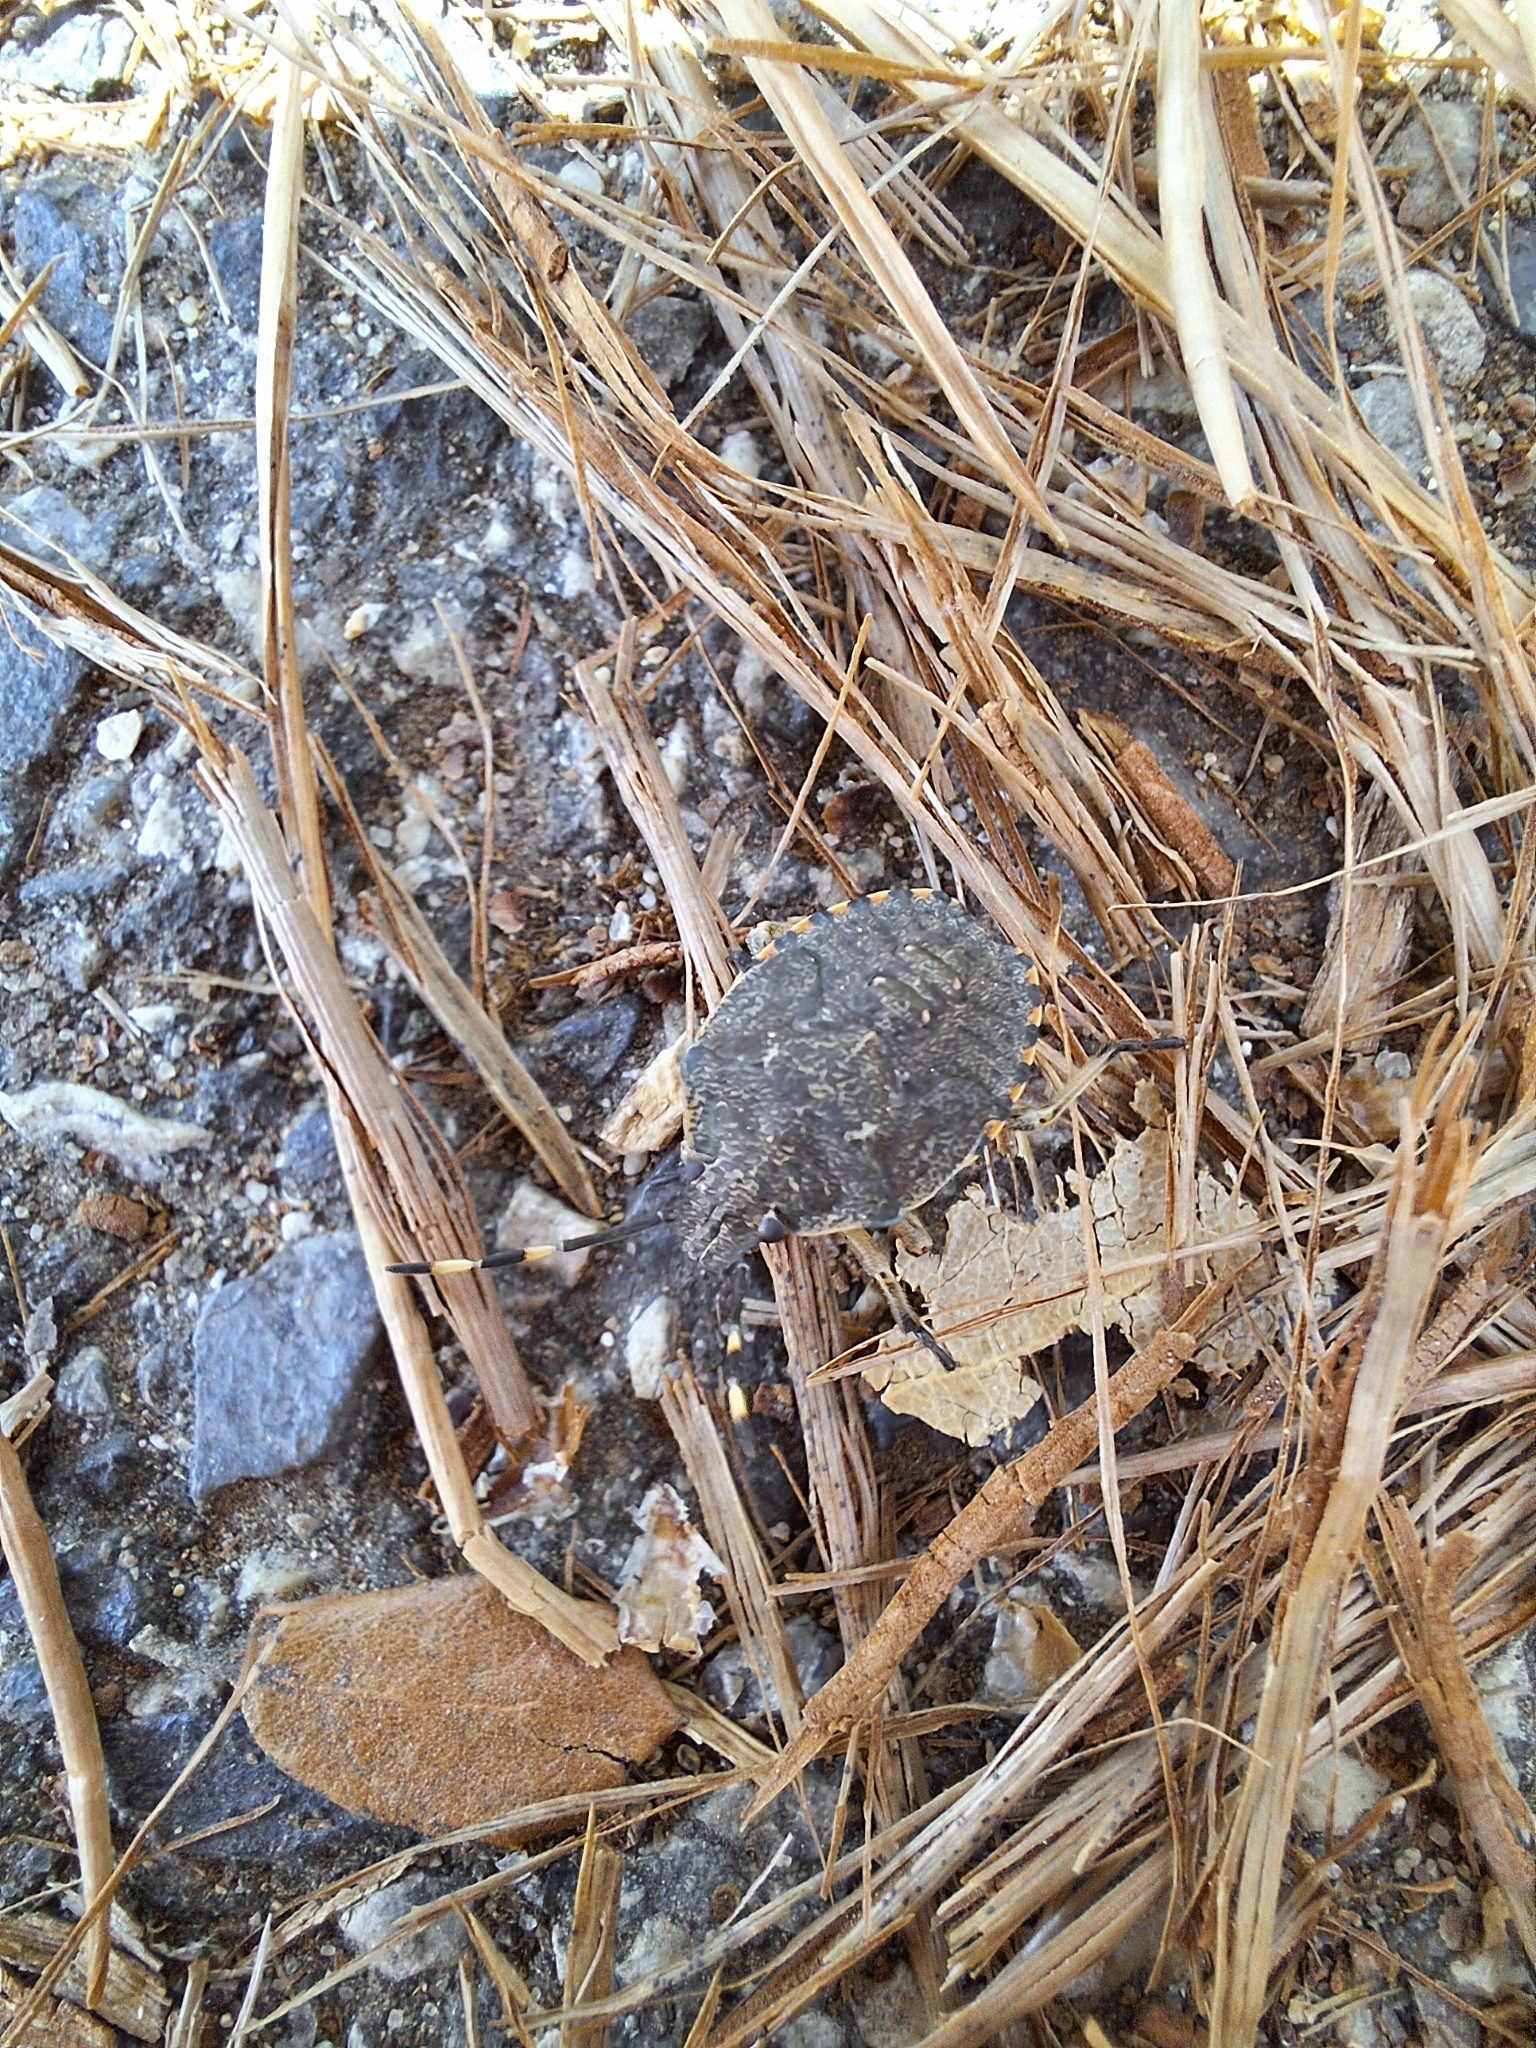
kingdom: Animalia
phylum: Arthropoda
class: Insecta
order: Hemiptera
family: Pentatomidae
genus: Rhaphigaster
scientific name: Rhaphigaster nebulosa
